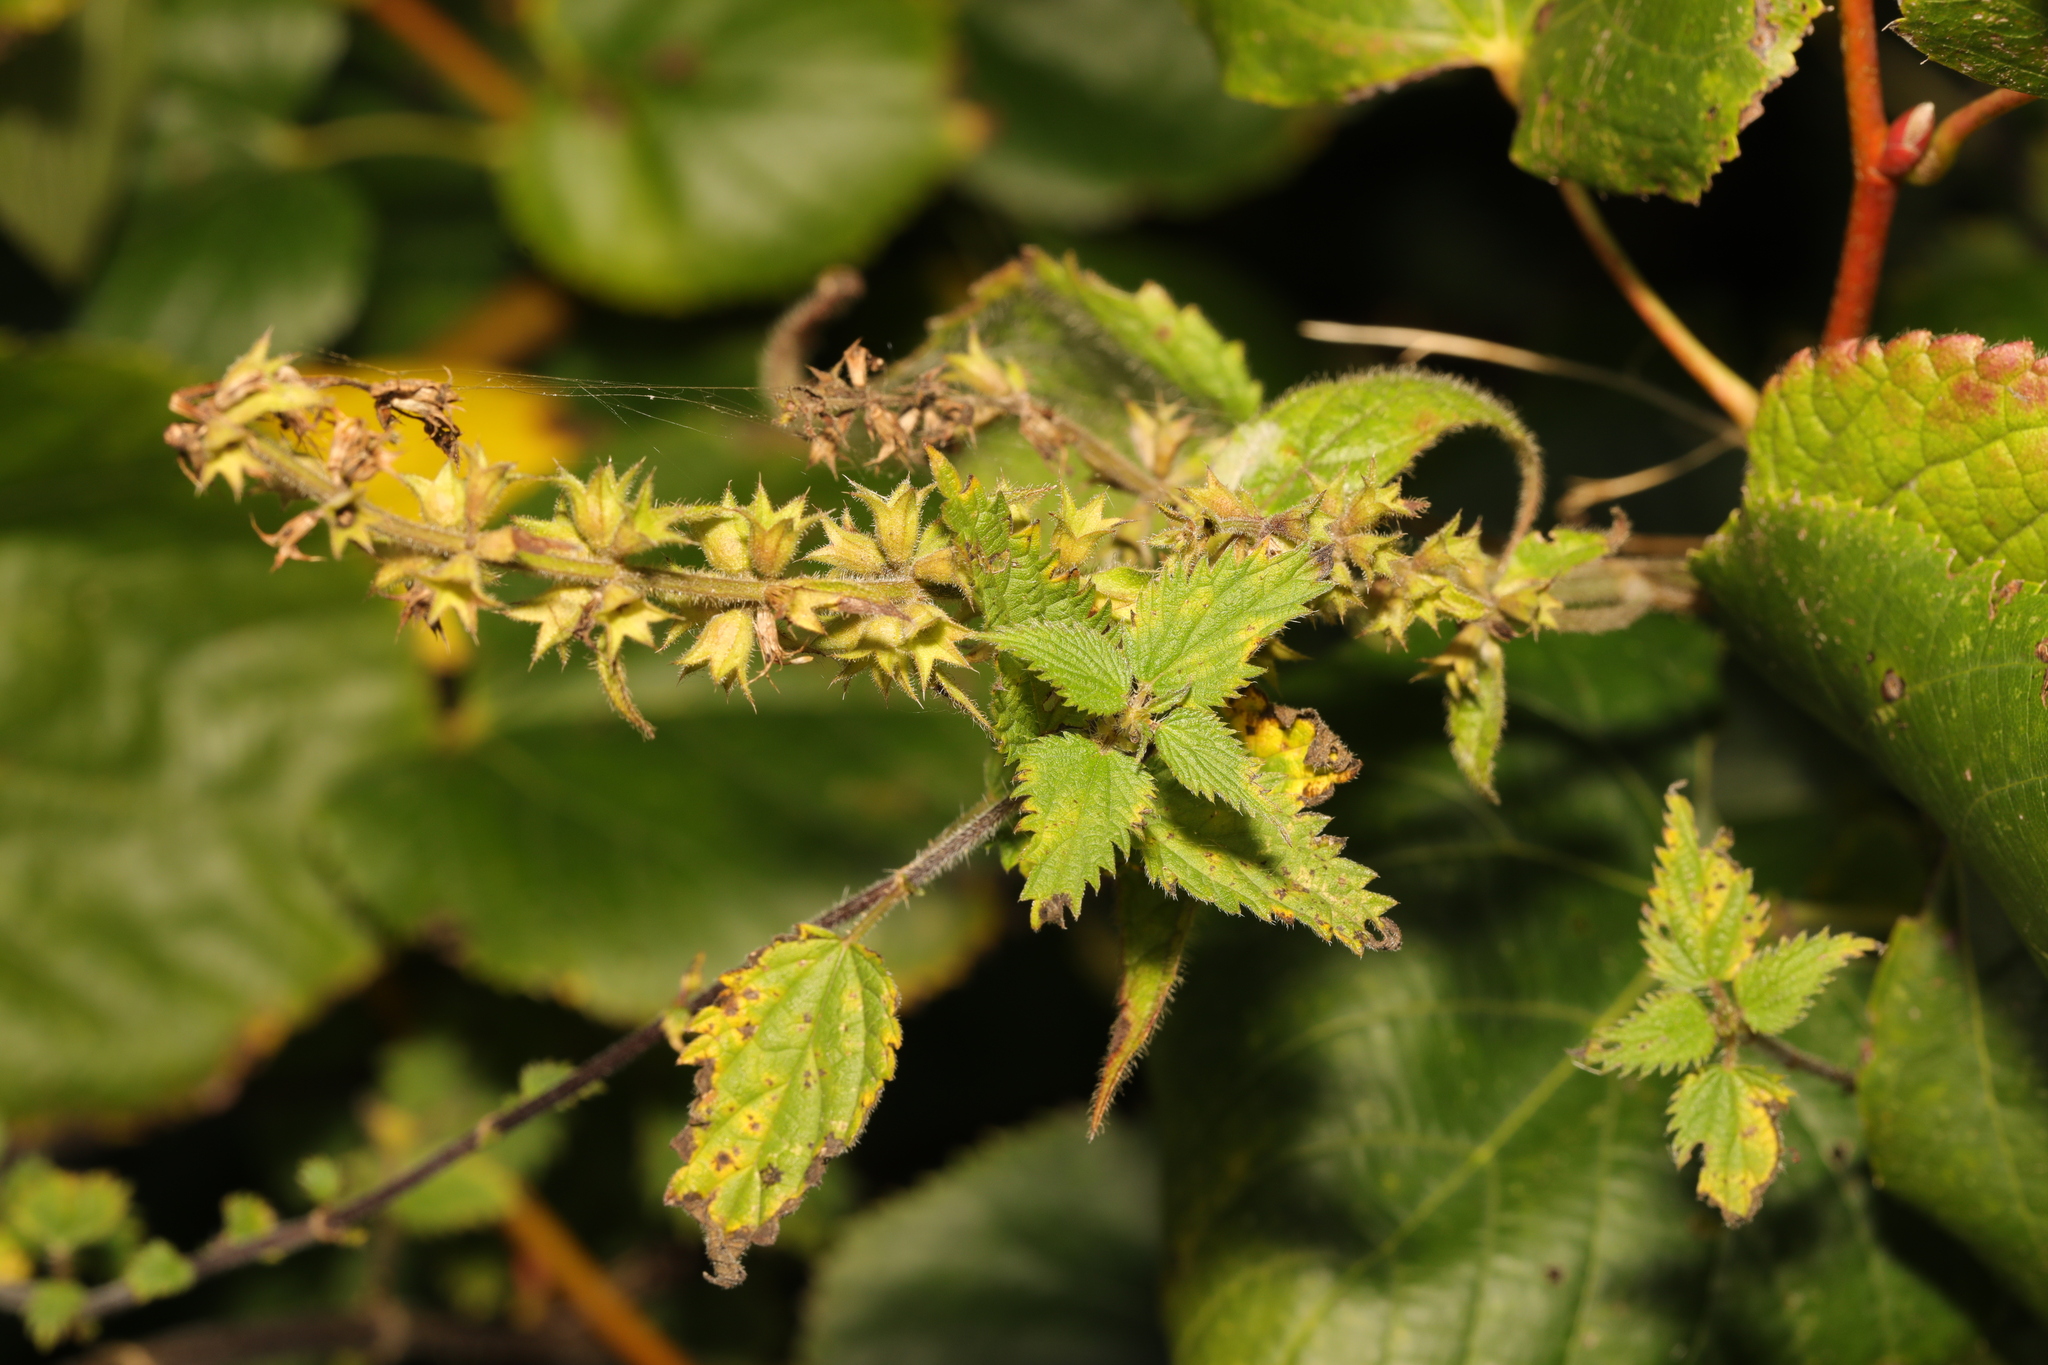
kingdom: Plantae
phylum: Tracheophyta
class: Magnoliopsida
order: Lamiales
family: Lamiaceae
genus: Stachys
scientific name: Stachys sylvatica
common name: Hedge woundwort
